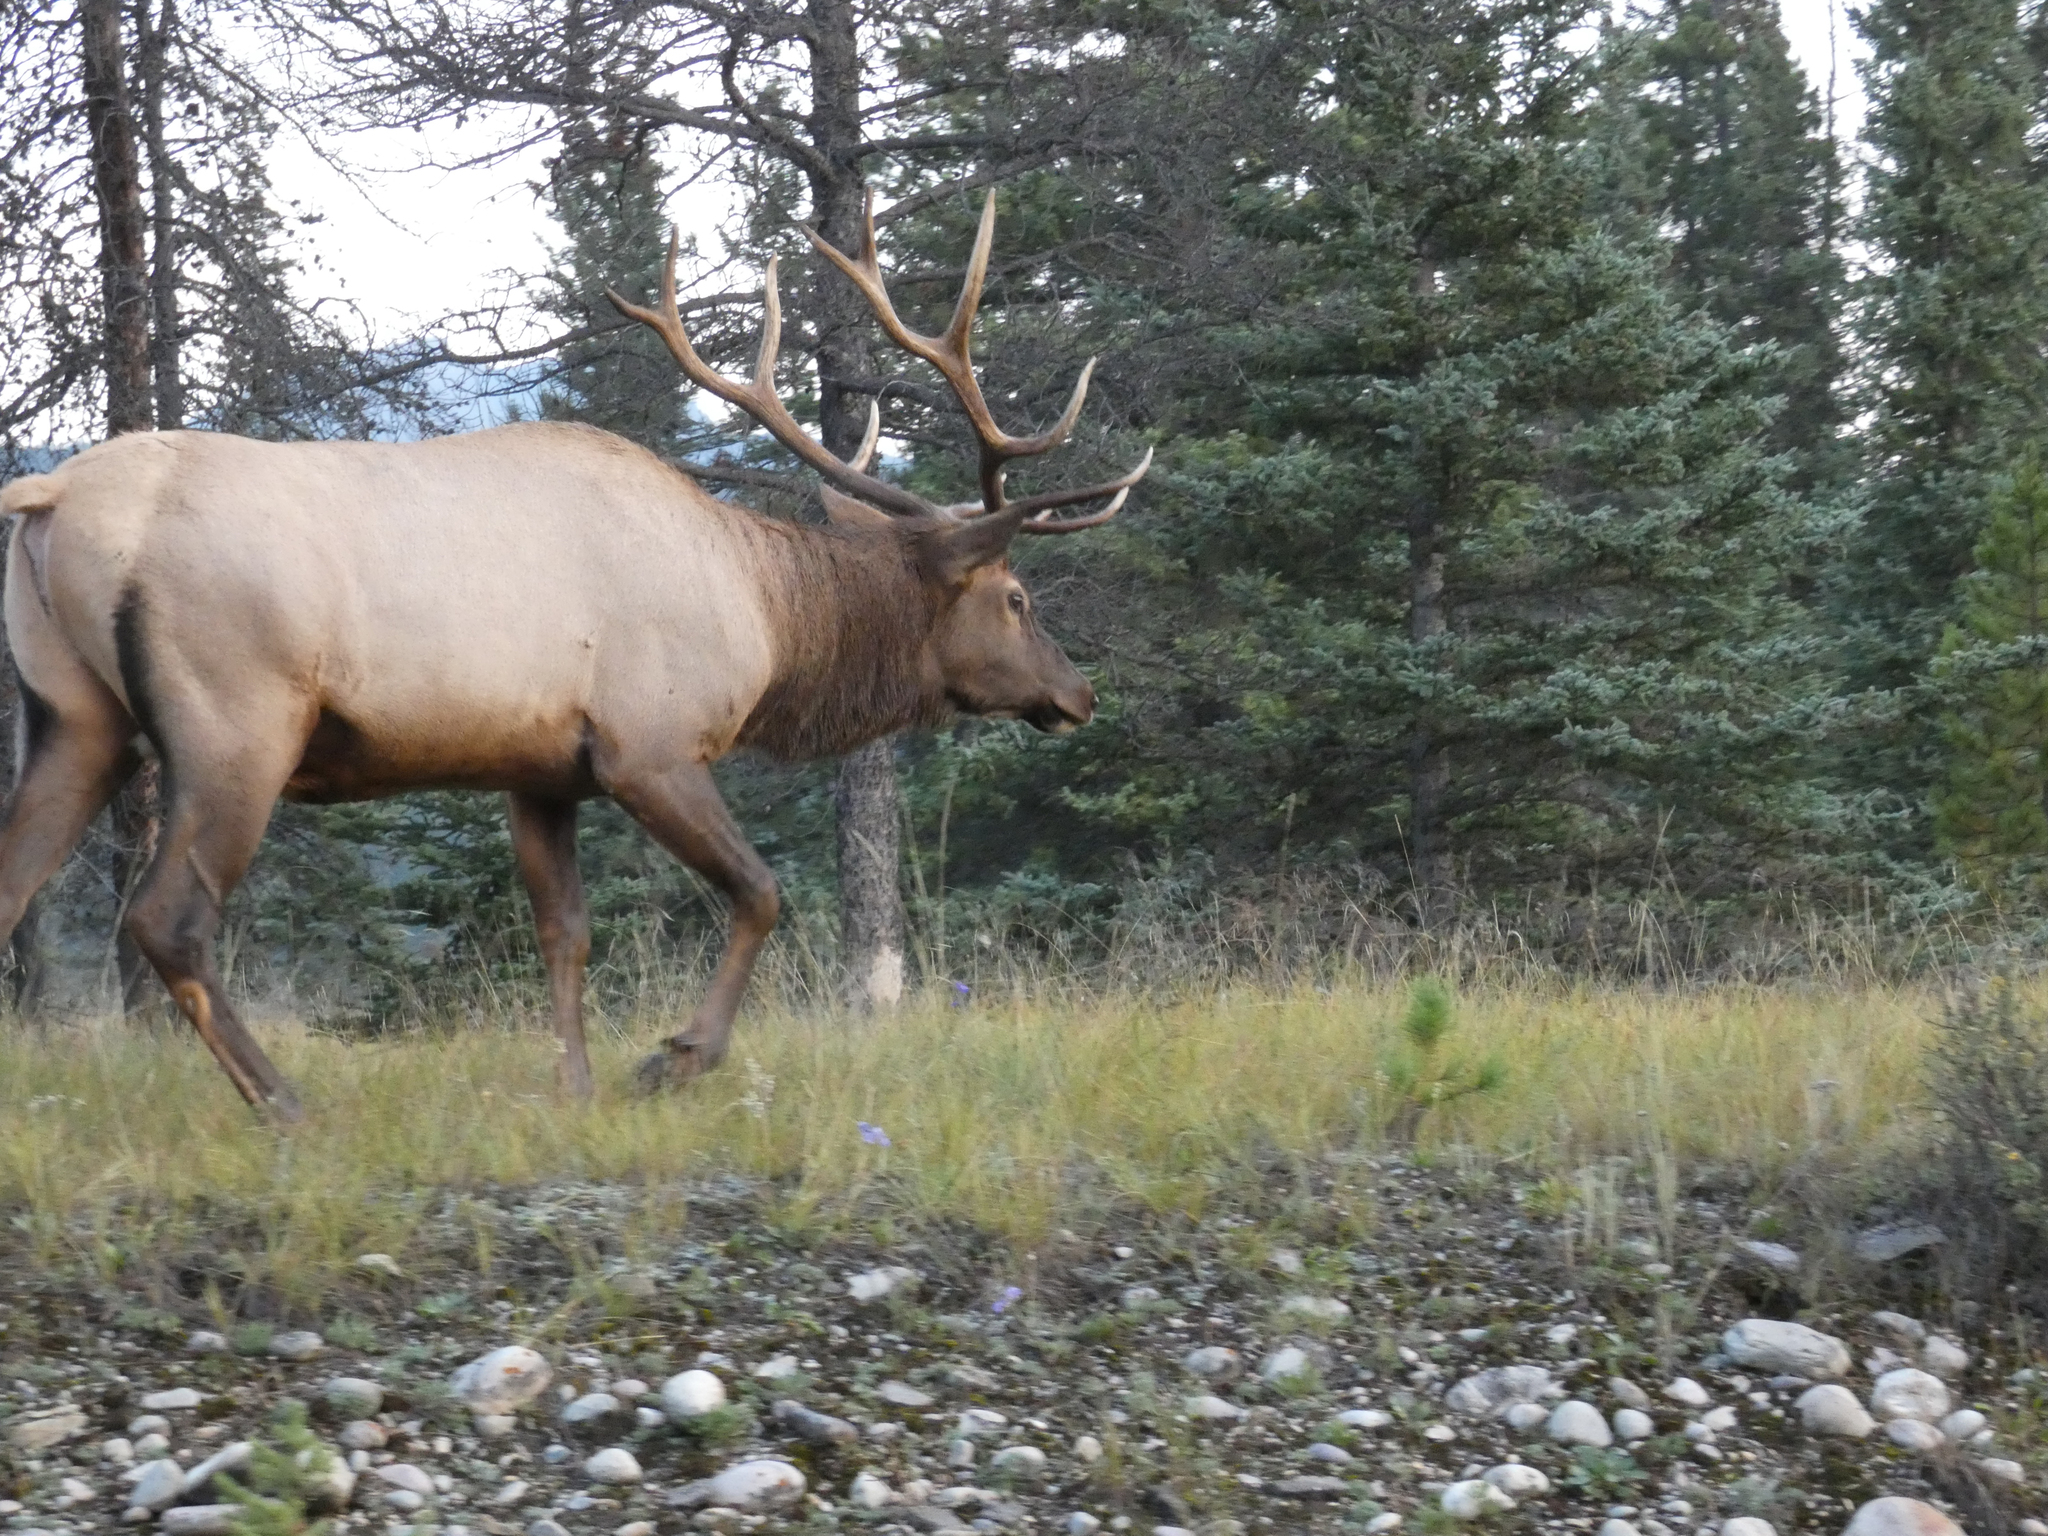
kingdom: Animalia
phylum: Chordata
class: Mammalia
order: Artiodactyla
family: Cervidae
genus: Cervus
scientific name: Cervus elaphus
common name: Red deer
